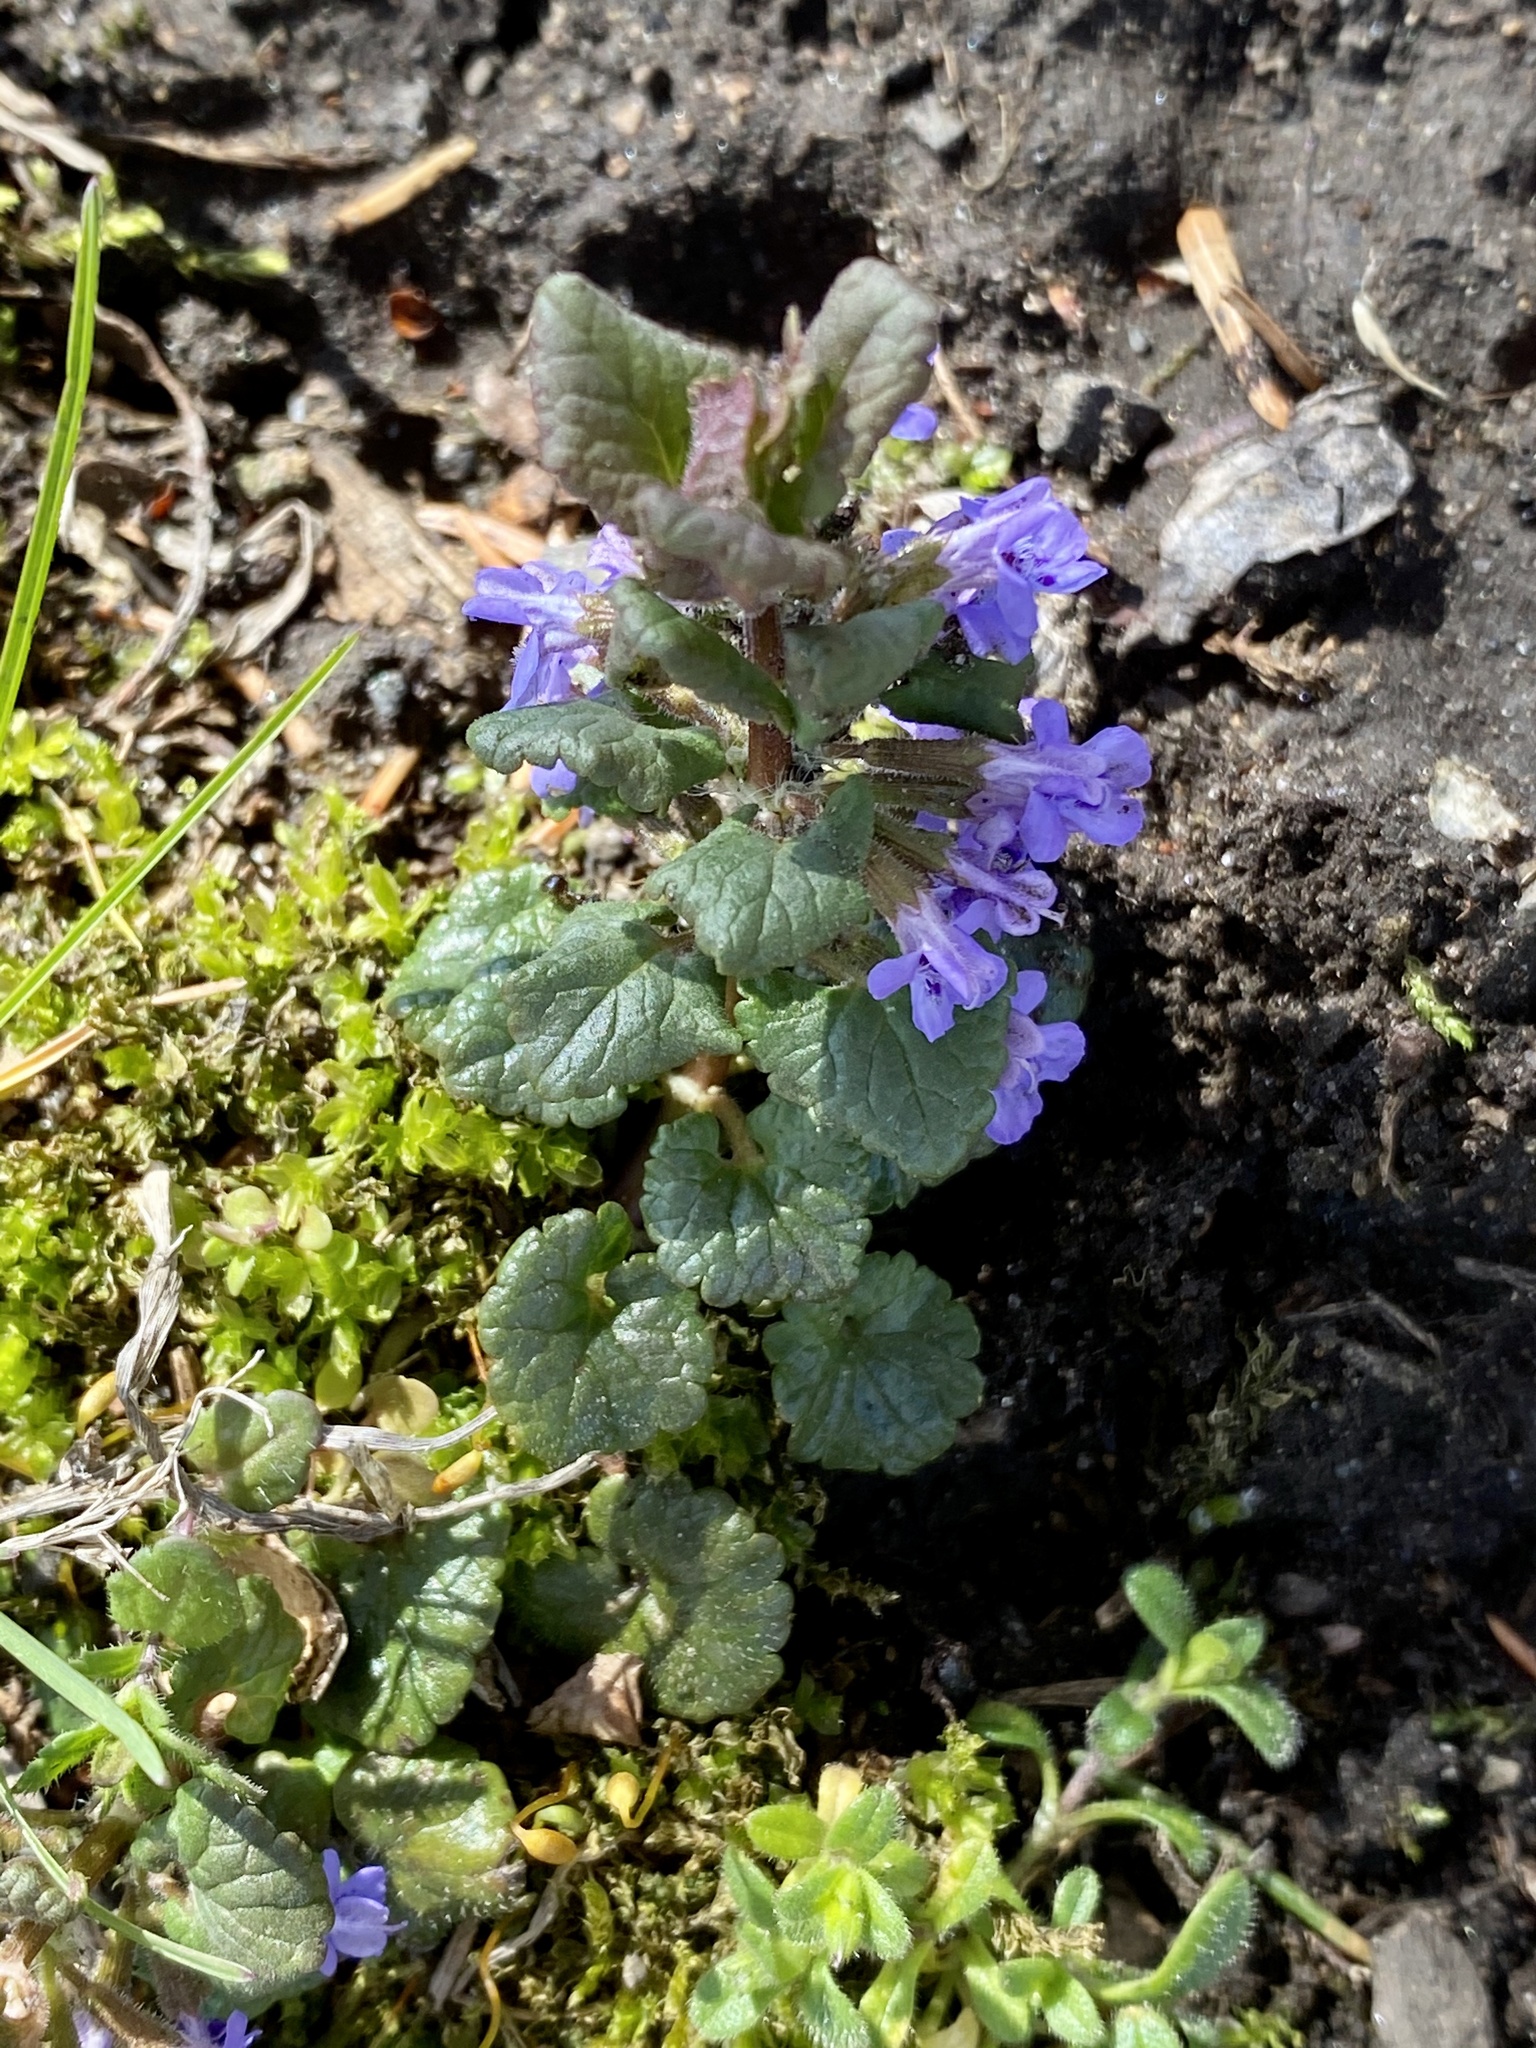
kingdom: Plantae
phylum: Tracheophyta
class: Magnoliopsida
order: Lamiales
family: Lamiaceae
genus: Glechoma
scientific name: Glechoma hederacea
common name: Ground ivy
